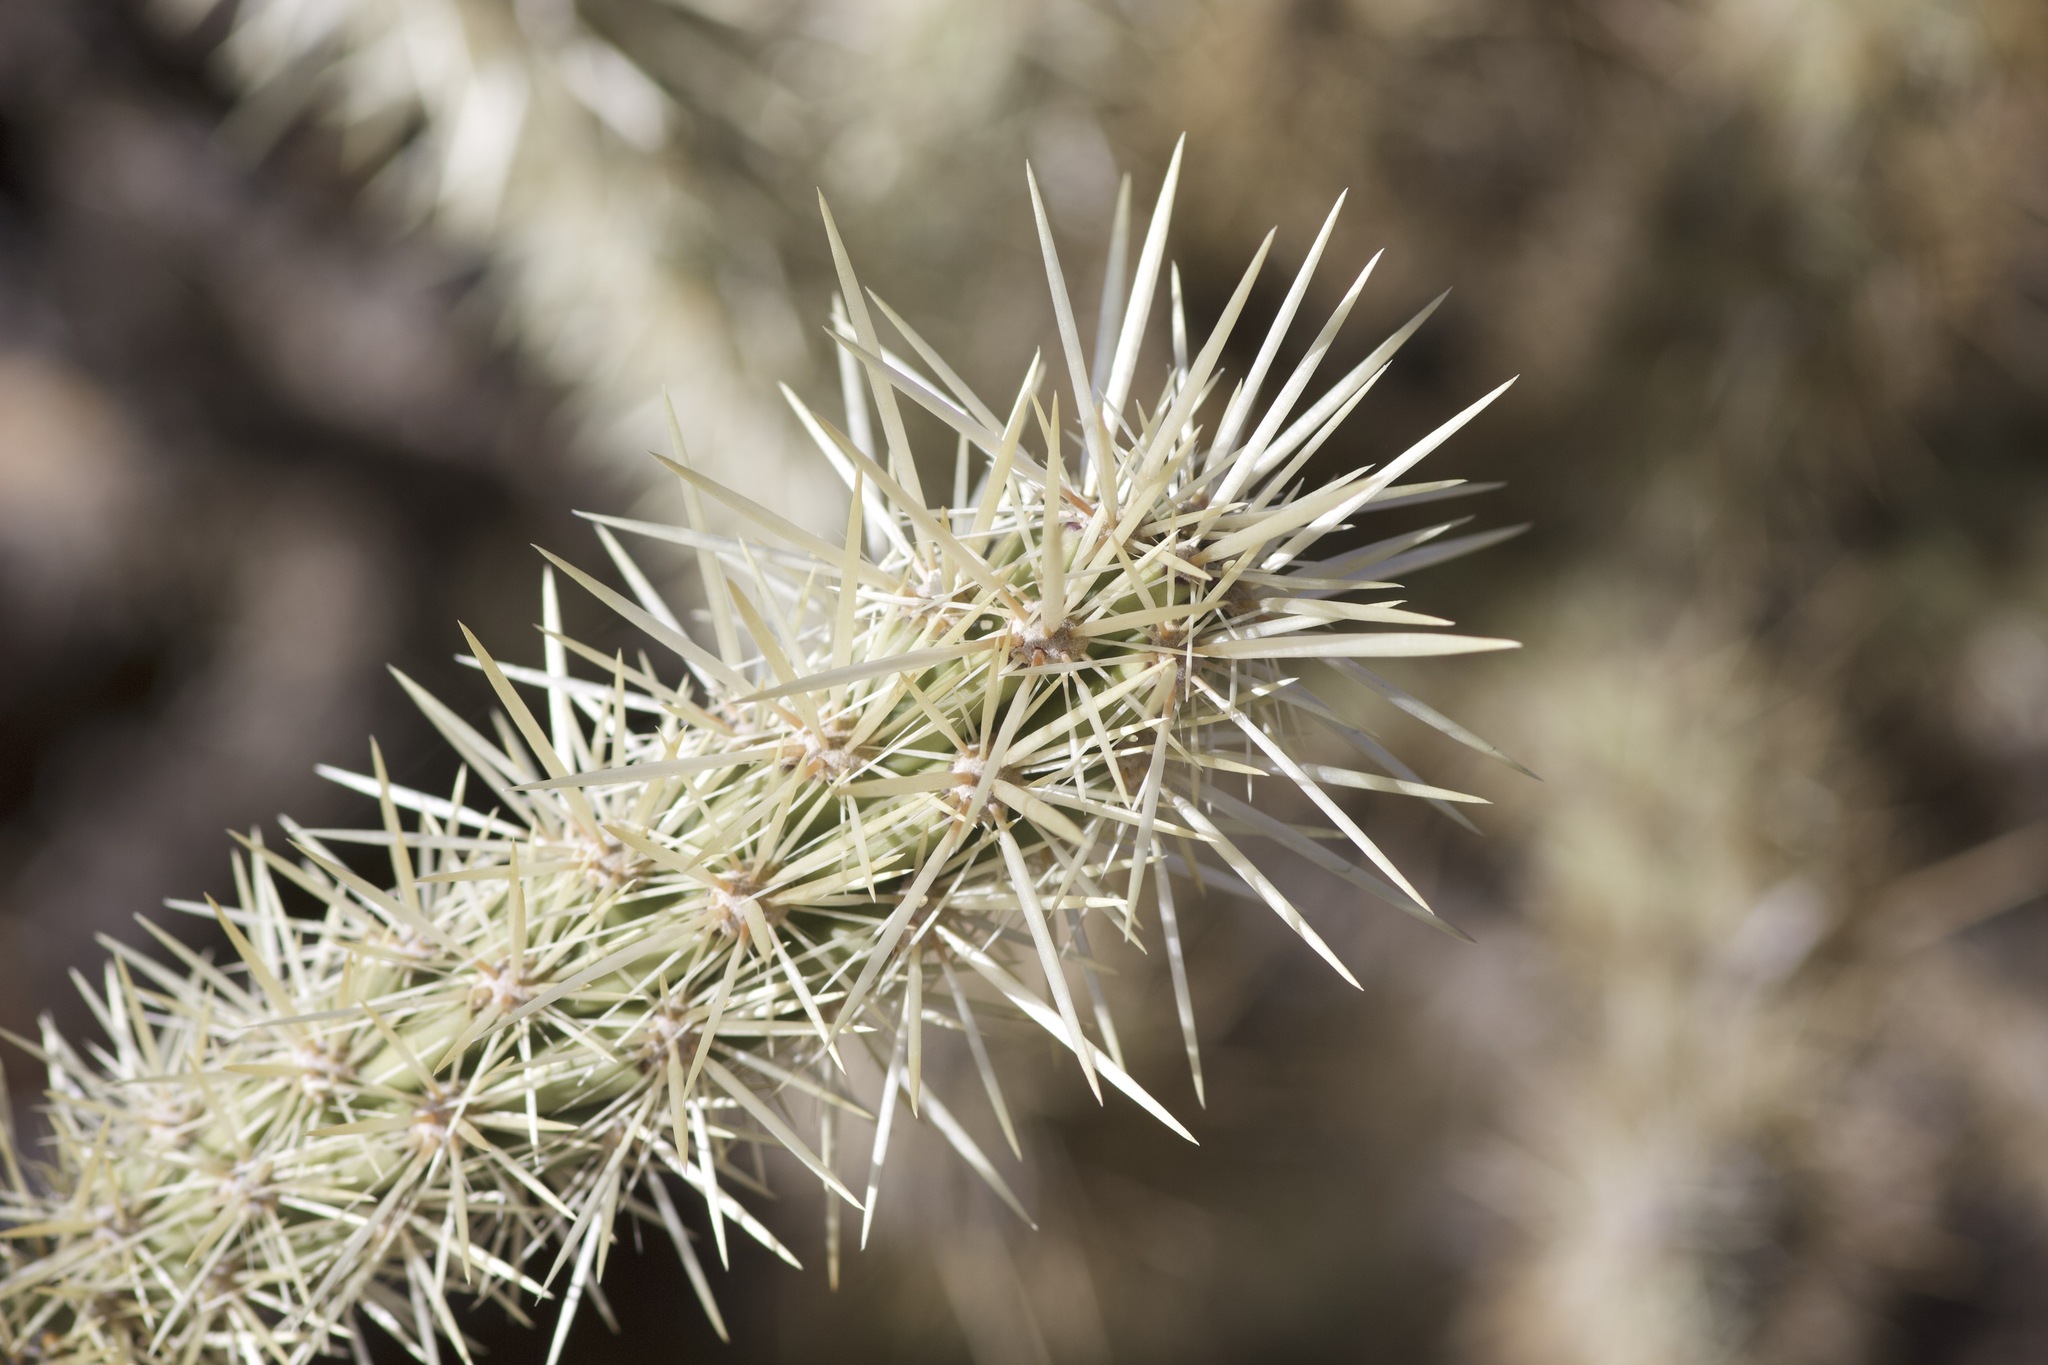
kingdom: Plantae
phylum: Tracheophyta
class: Magnoliopsida
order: Caryophyllales
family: Cactaceae
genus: Cylindropuntia
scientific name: Cylindropuntia acanthocarpa
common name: Buckhorn cholla
